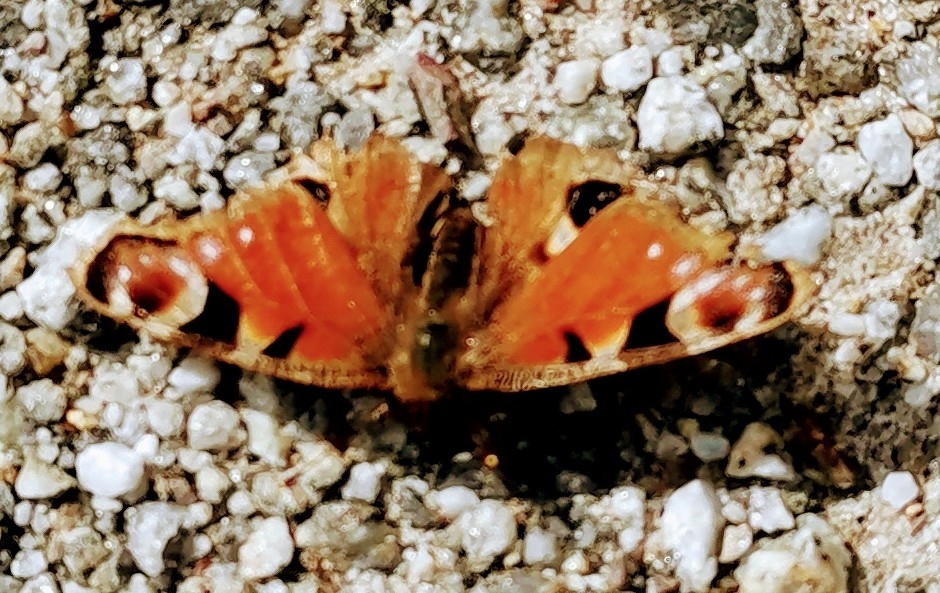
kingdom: Animalia
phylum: Arthropoda
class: Insecta
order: Lepidoptera
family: Nymphalidae
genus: Aglais
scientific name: Aglais io
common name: Peacock
